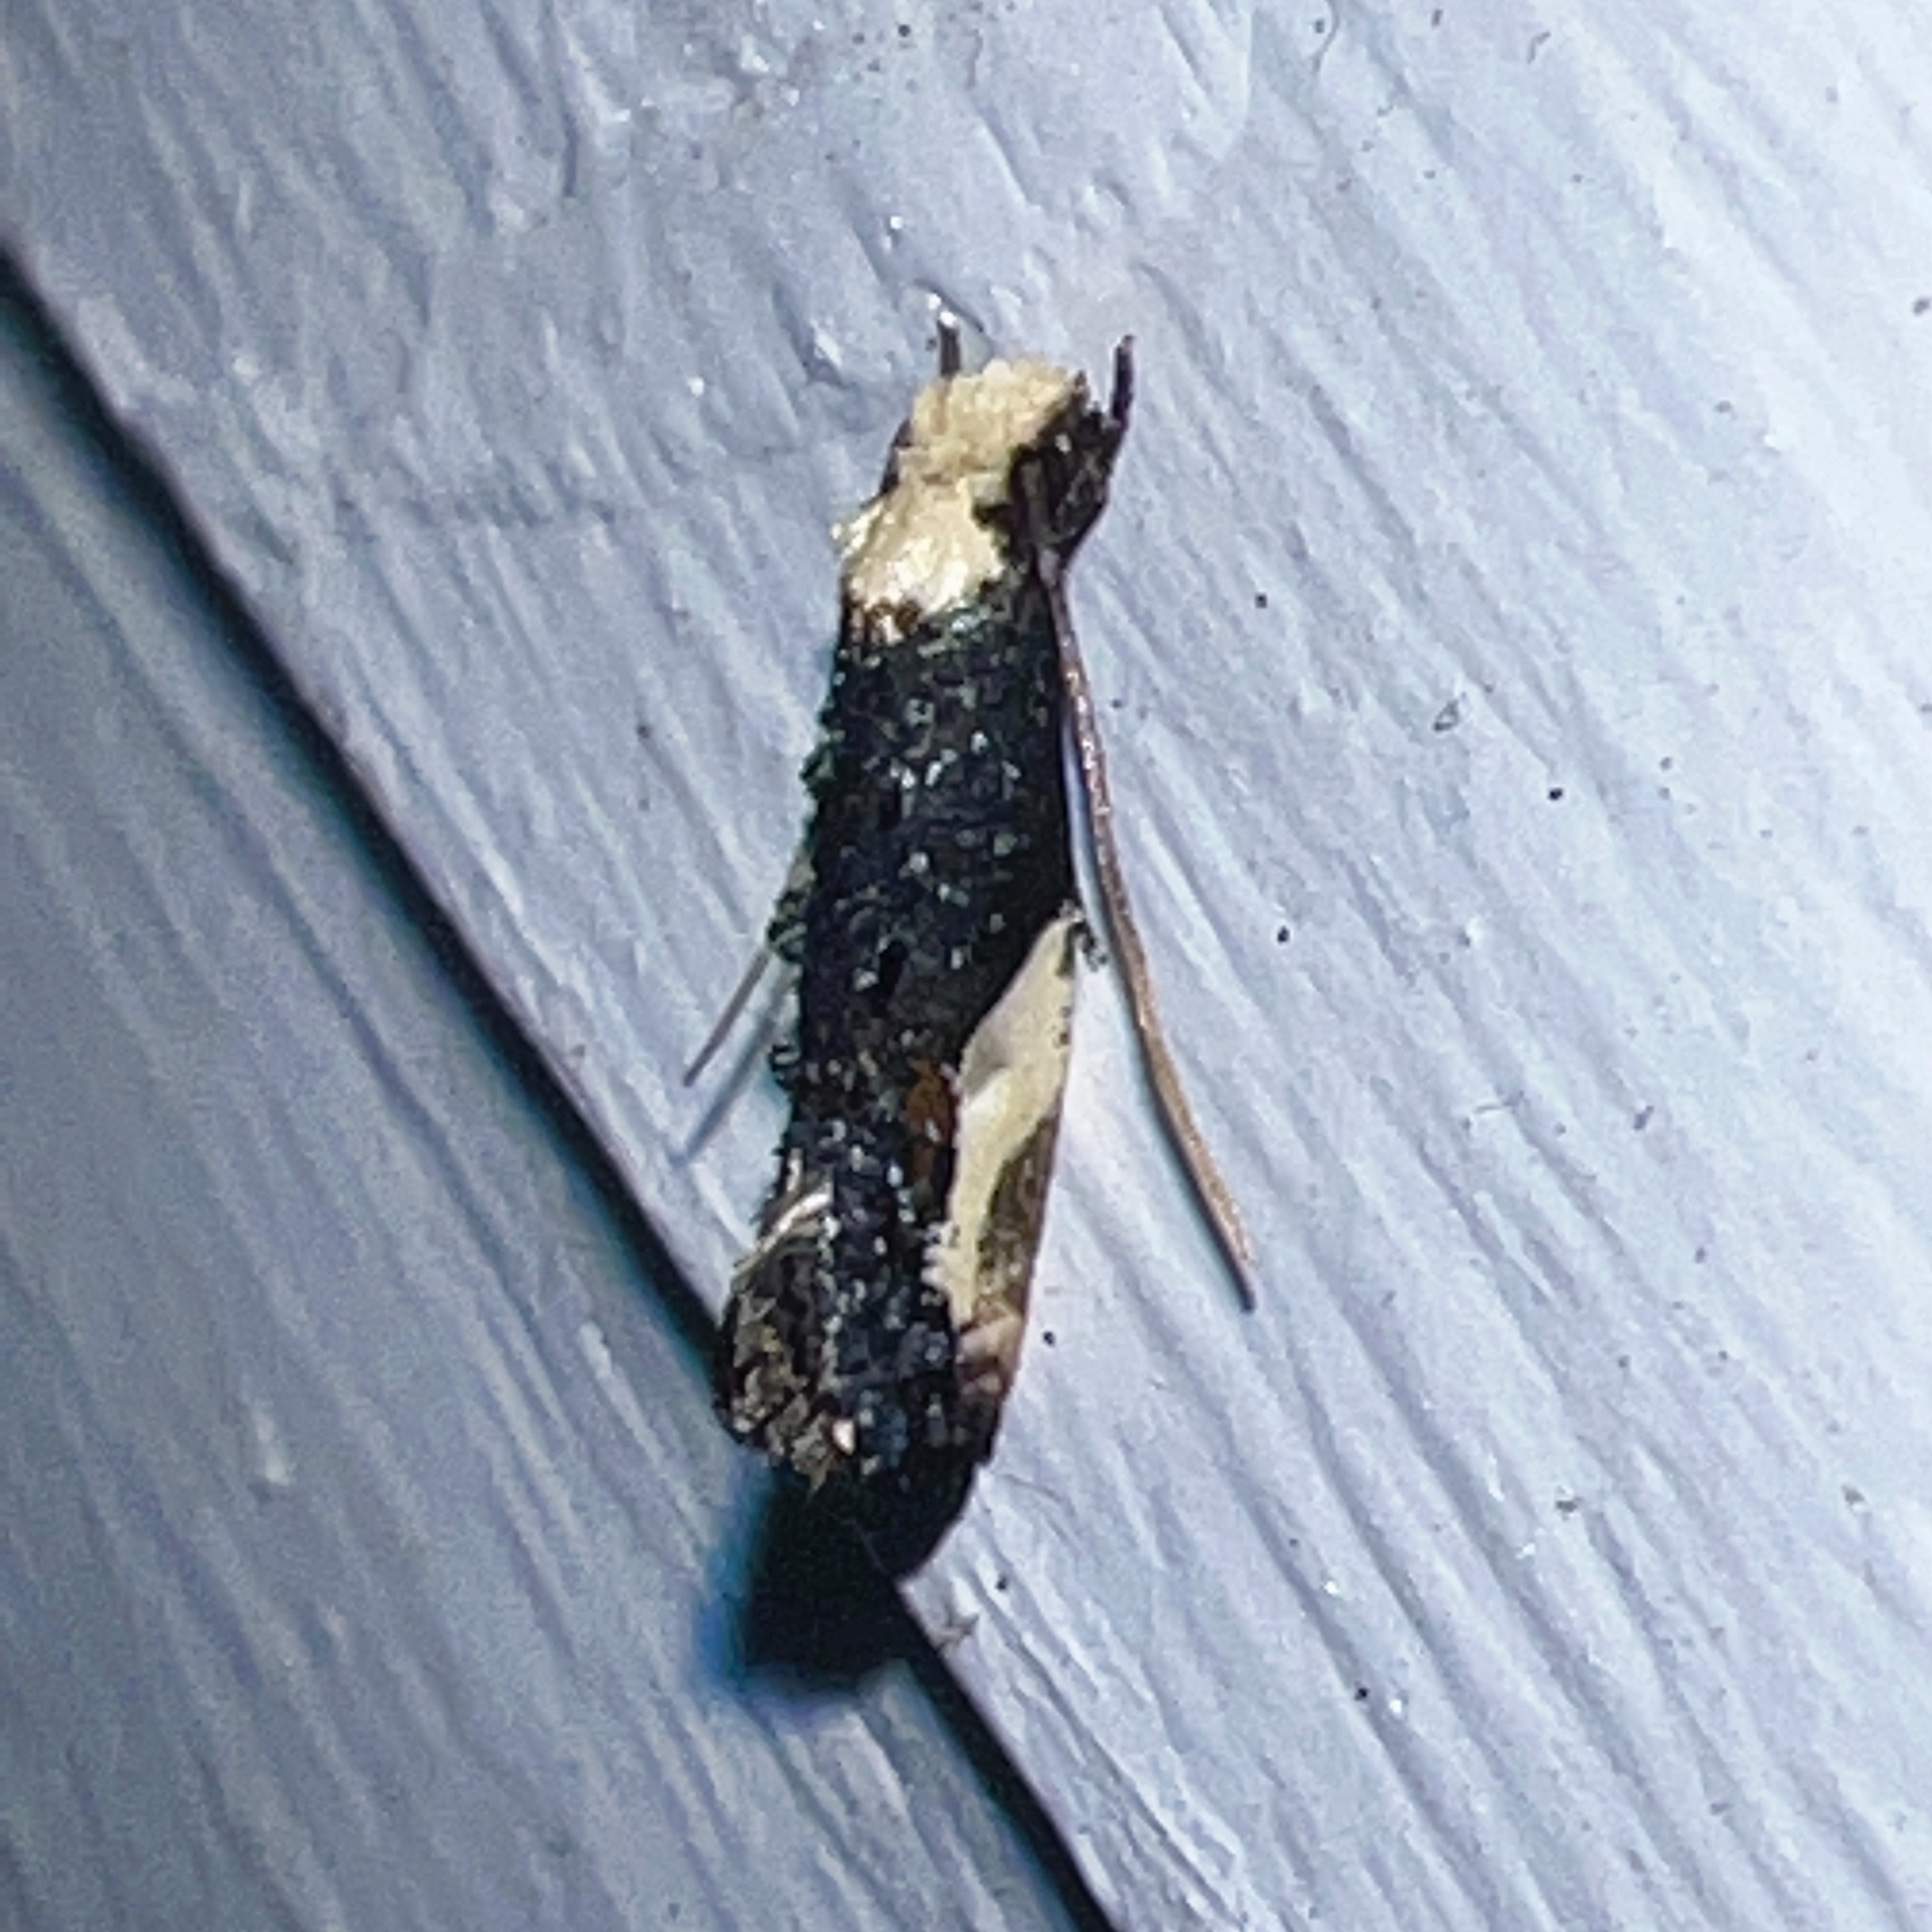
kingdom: Animalia
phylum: Arthropoda
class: Insecta
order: Lepidoptera
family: Tineidae
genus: Monopis
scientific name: Monopis longella
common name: Pavlovski's monopis moth
